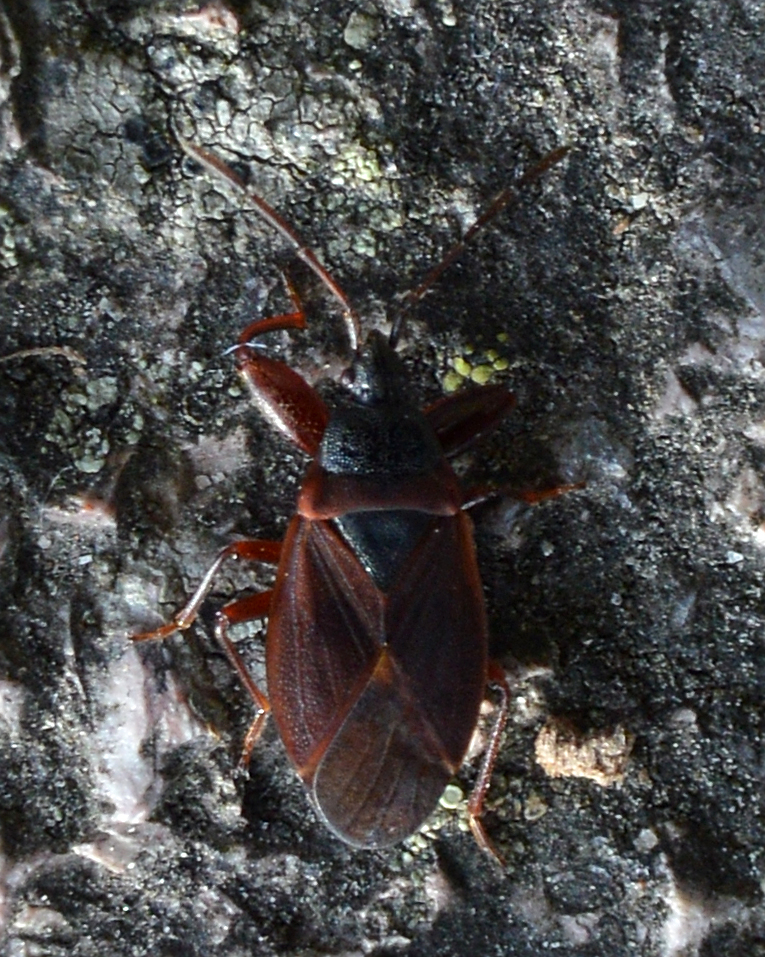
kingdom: Animalia
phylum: Arthropoda
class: Insecta
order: Hemiptera
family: Rhyparochromidae
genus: Gastrodes
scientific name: Gastrodes grossipes
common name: Pine cone bug
